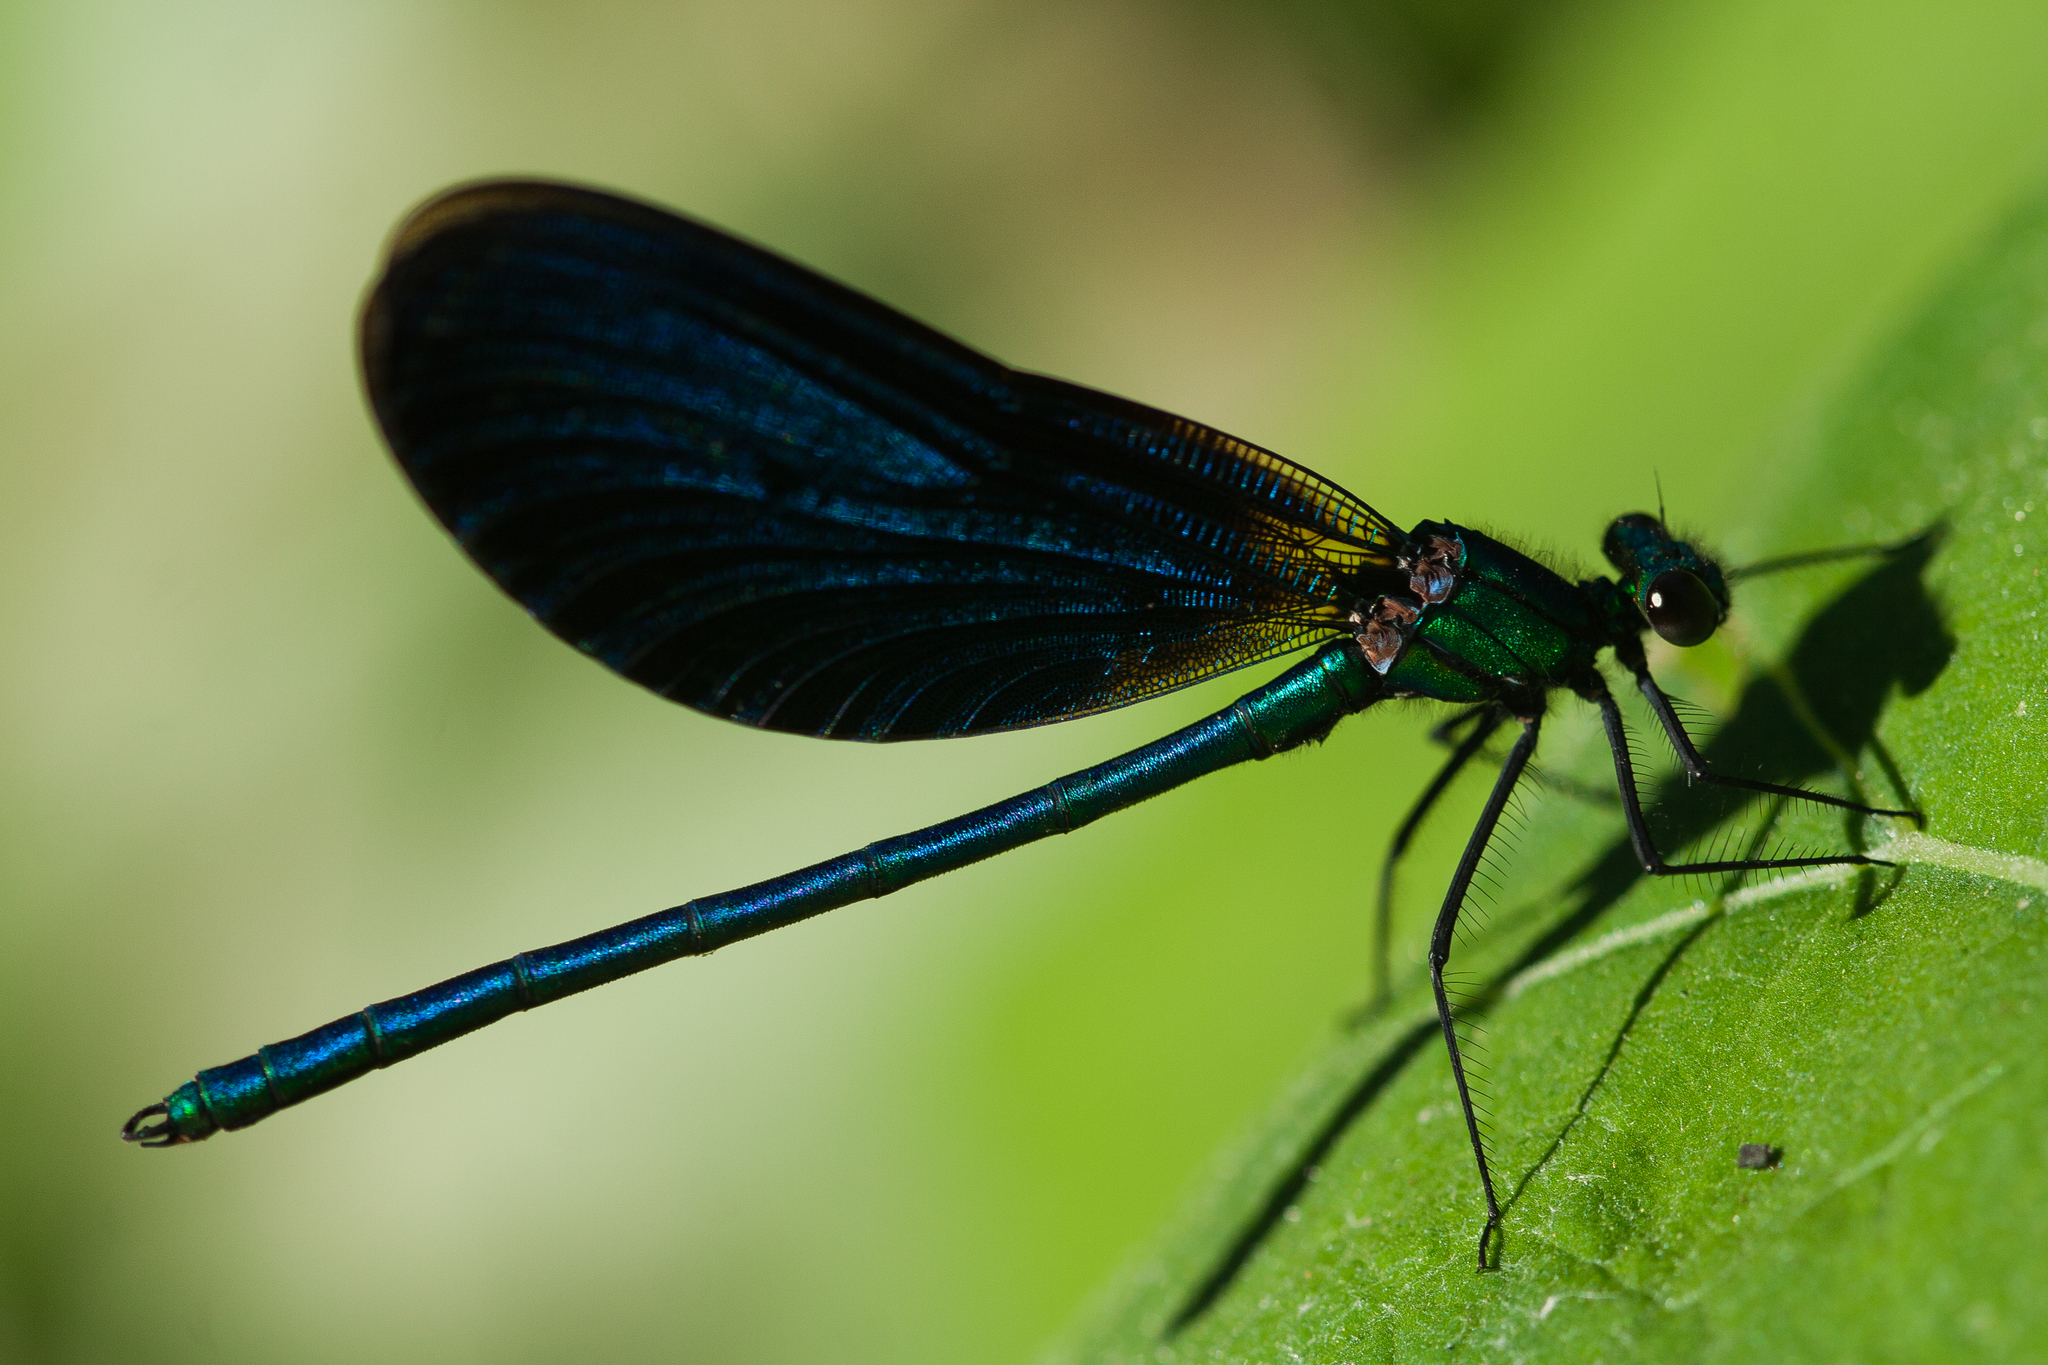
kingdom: Animalia
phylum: Arthropoda
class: Insecta
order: Odonata
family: Calopterygidae
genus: Calopteryx
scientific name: Calopteryx virgo
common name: Beautiful demoiselle
